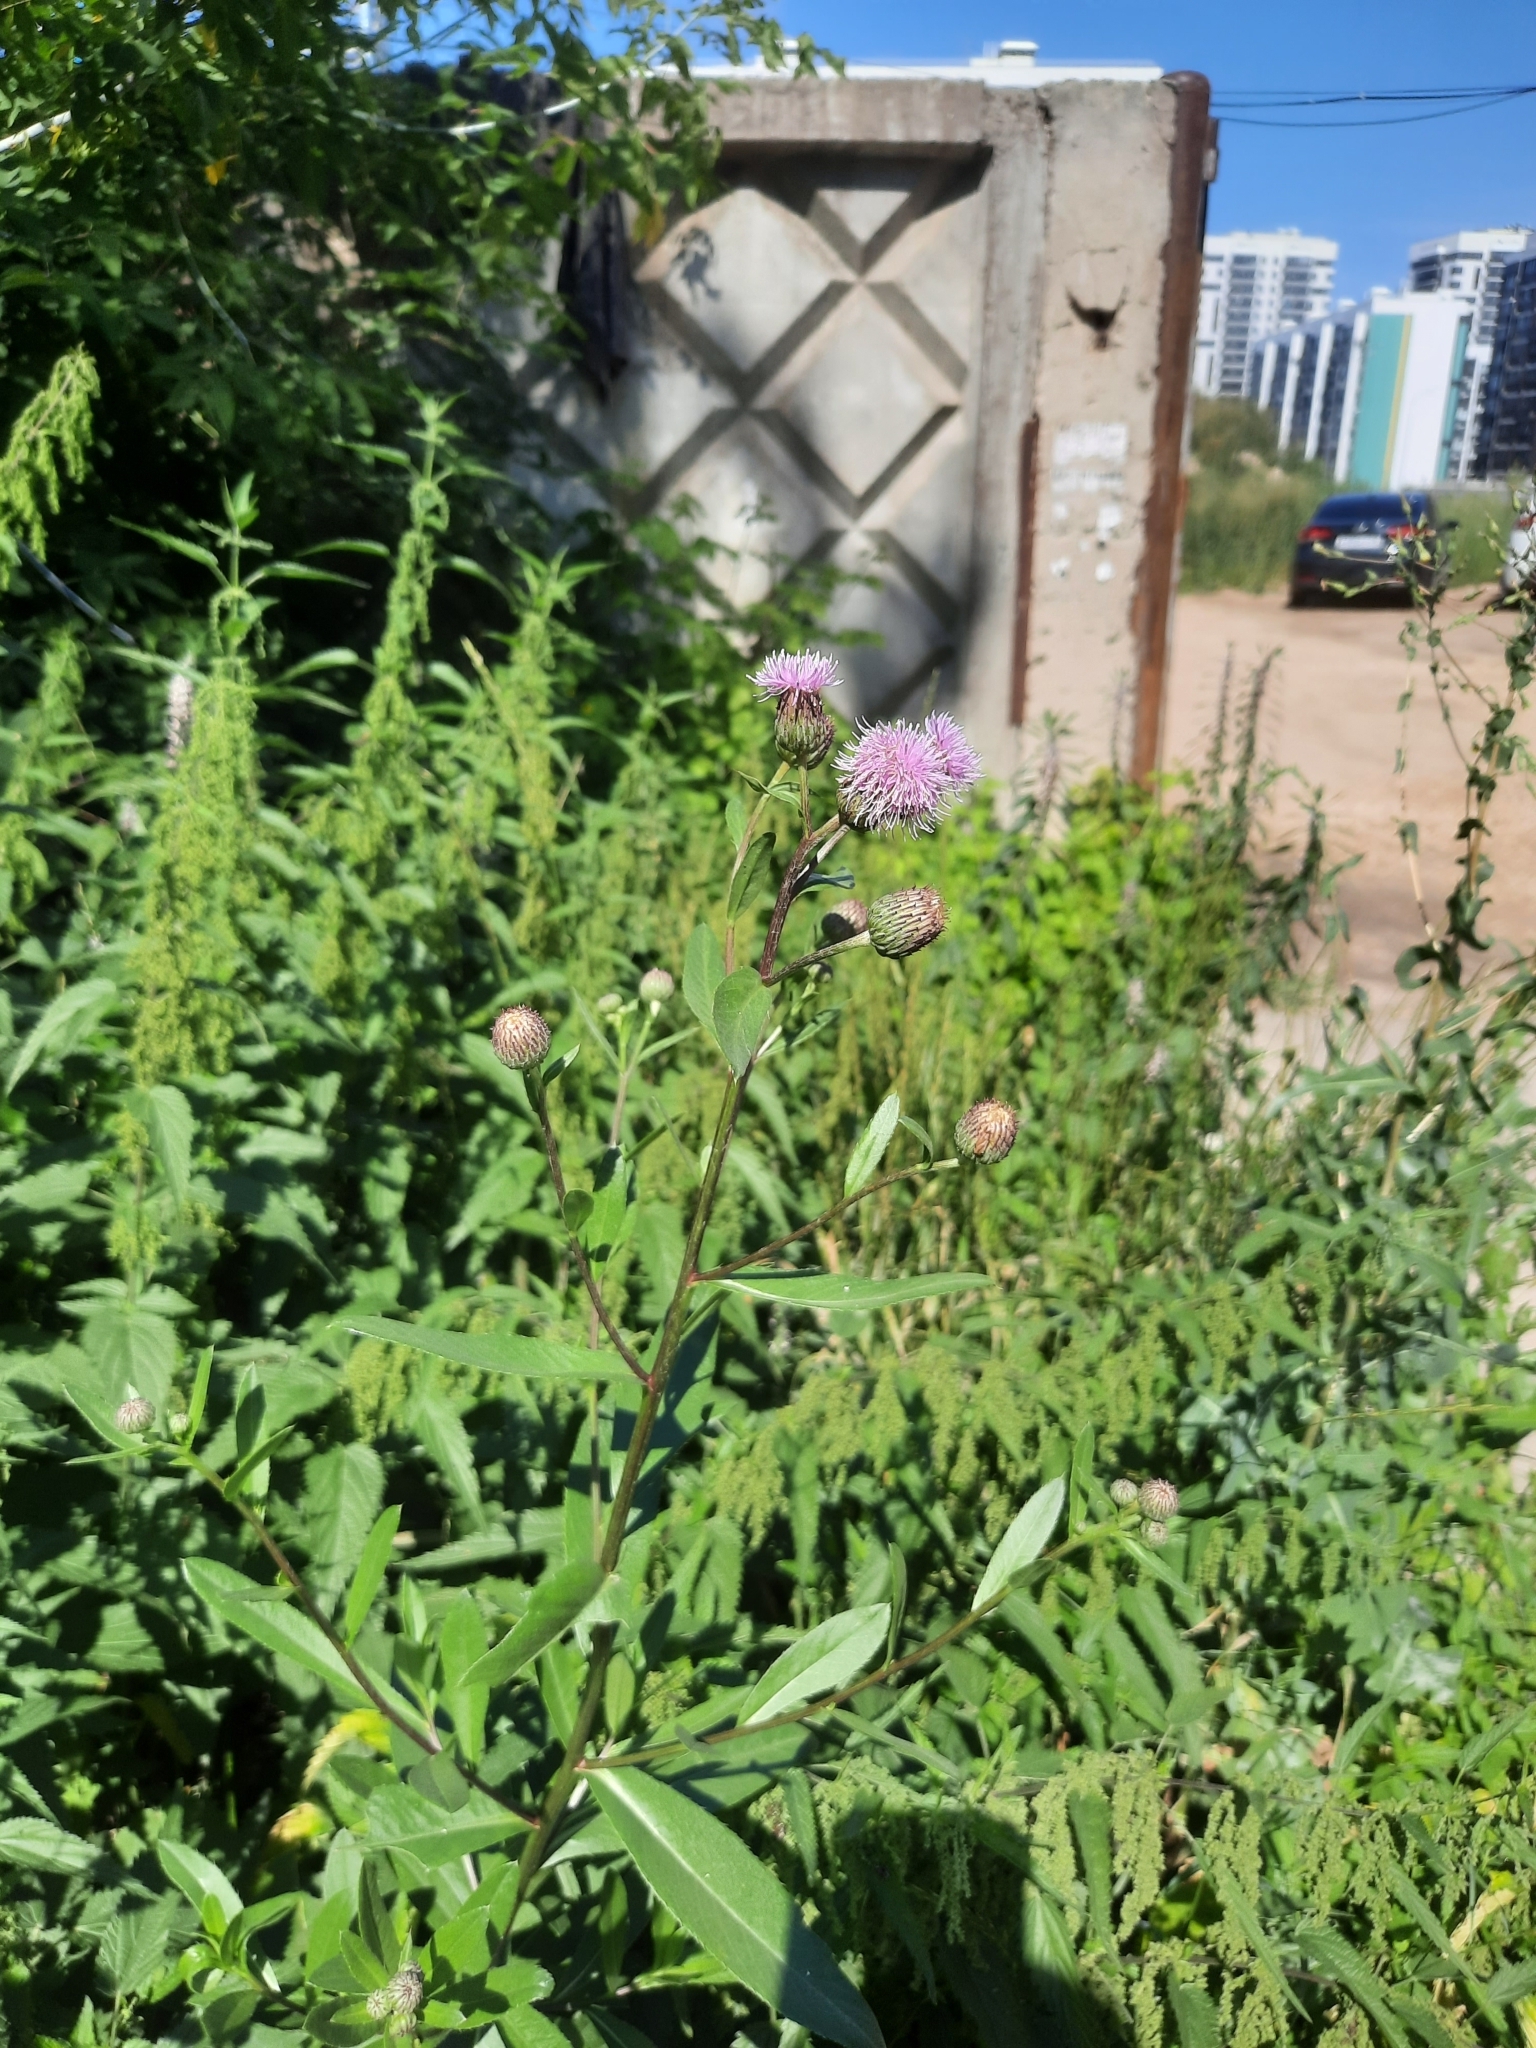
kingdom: Plantae
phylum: Tracheophyta
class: Magnoliopsida
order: Asterales
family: Asteraceae
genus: Cirsium
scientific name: Cirsium arvense
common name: Creeping thistle
